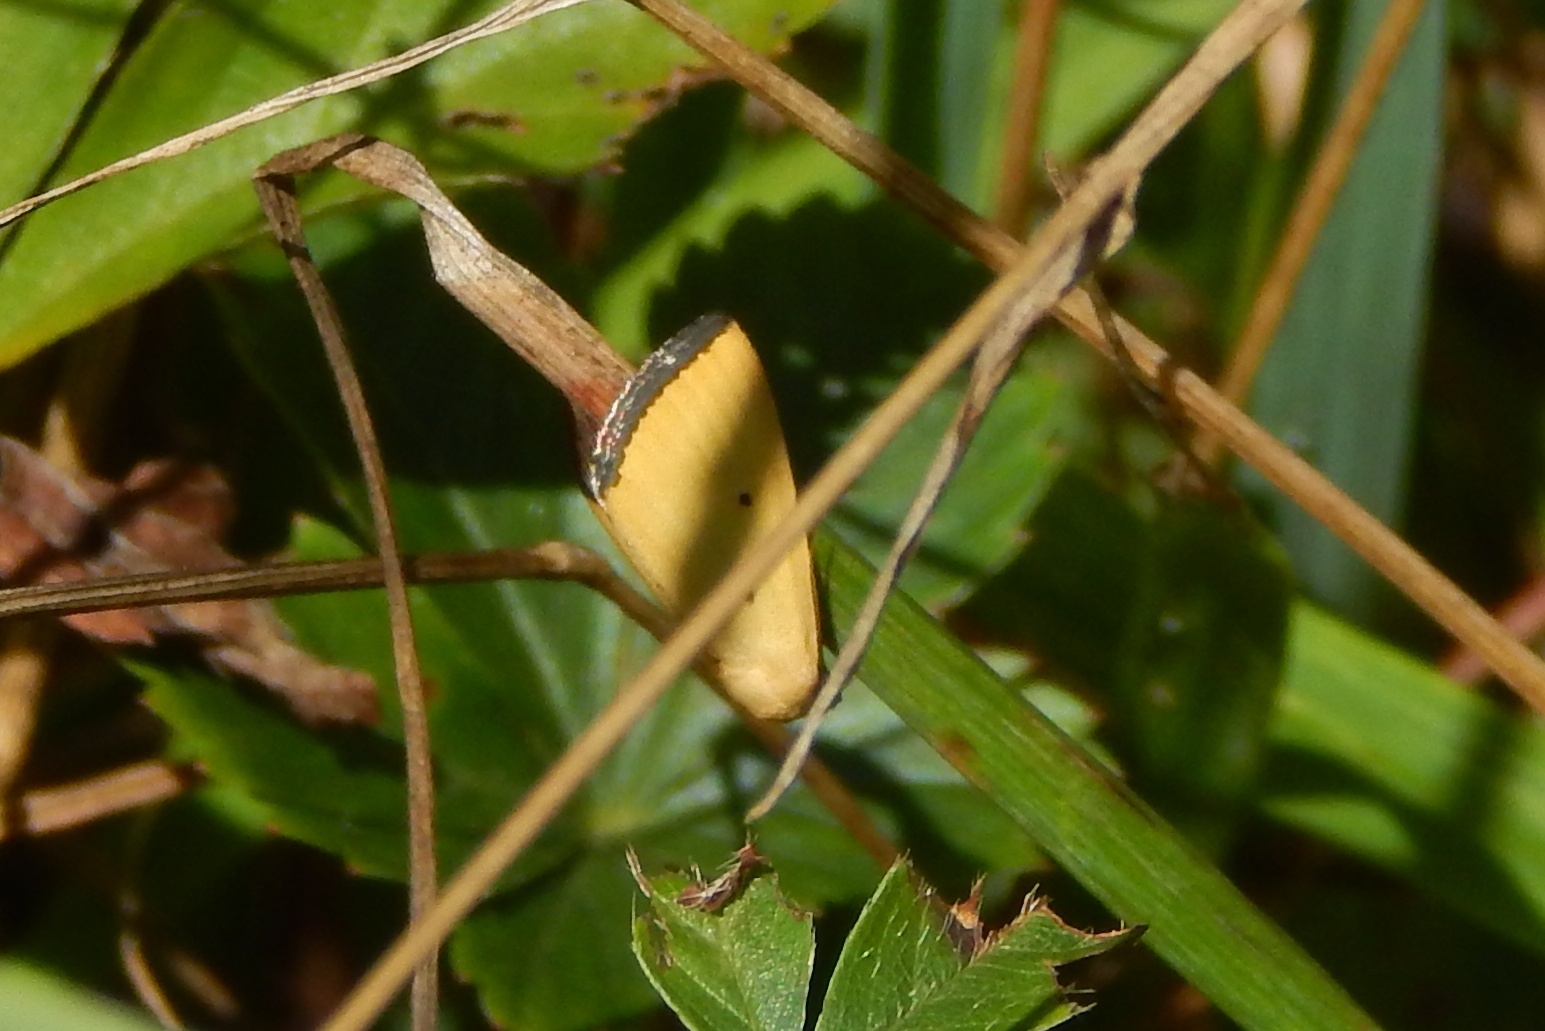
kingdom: Animalia
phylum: Arthropoda
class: Insecta
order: Lepidoptera
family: Noctuidae
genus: Marimatha
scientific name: Marimatha nigrofimbria
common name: Black-bordered lemon moth
